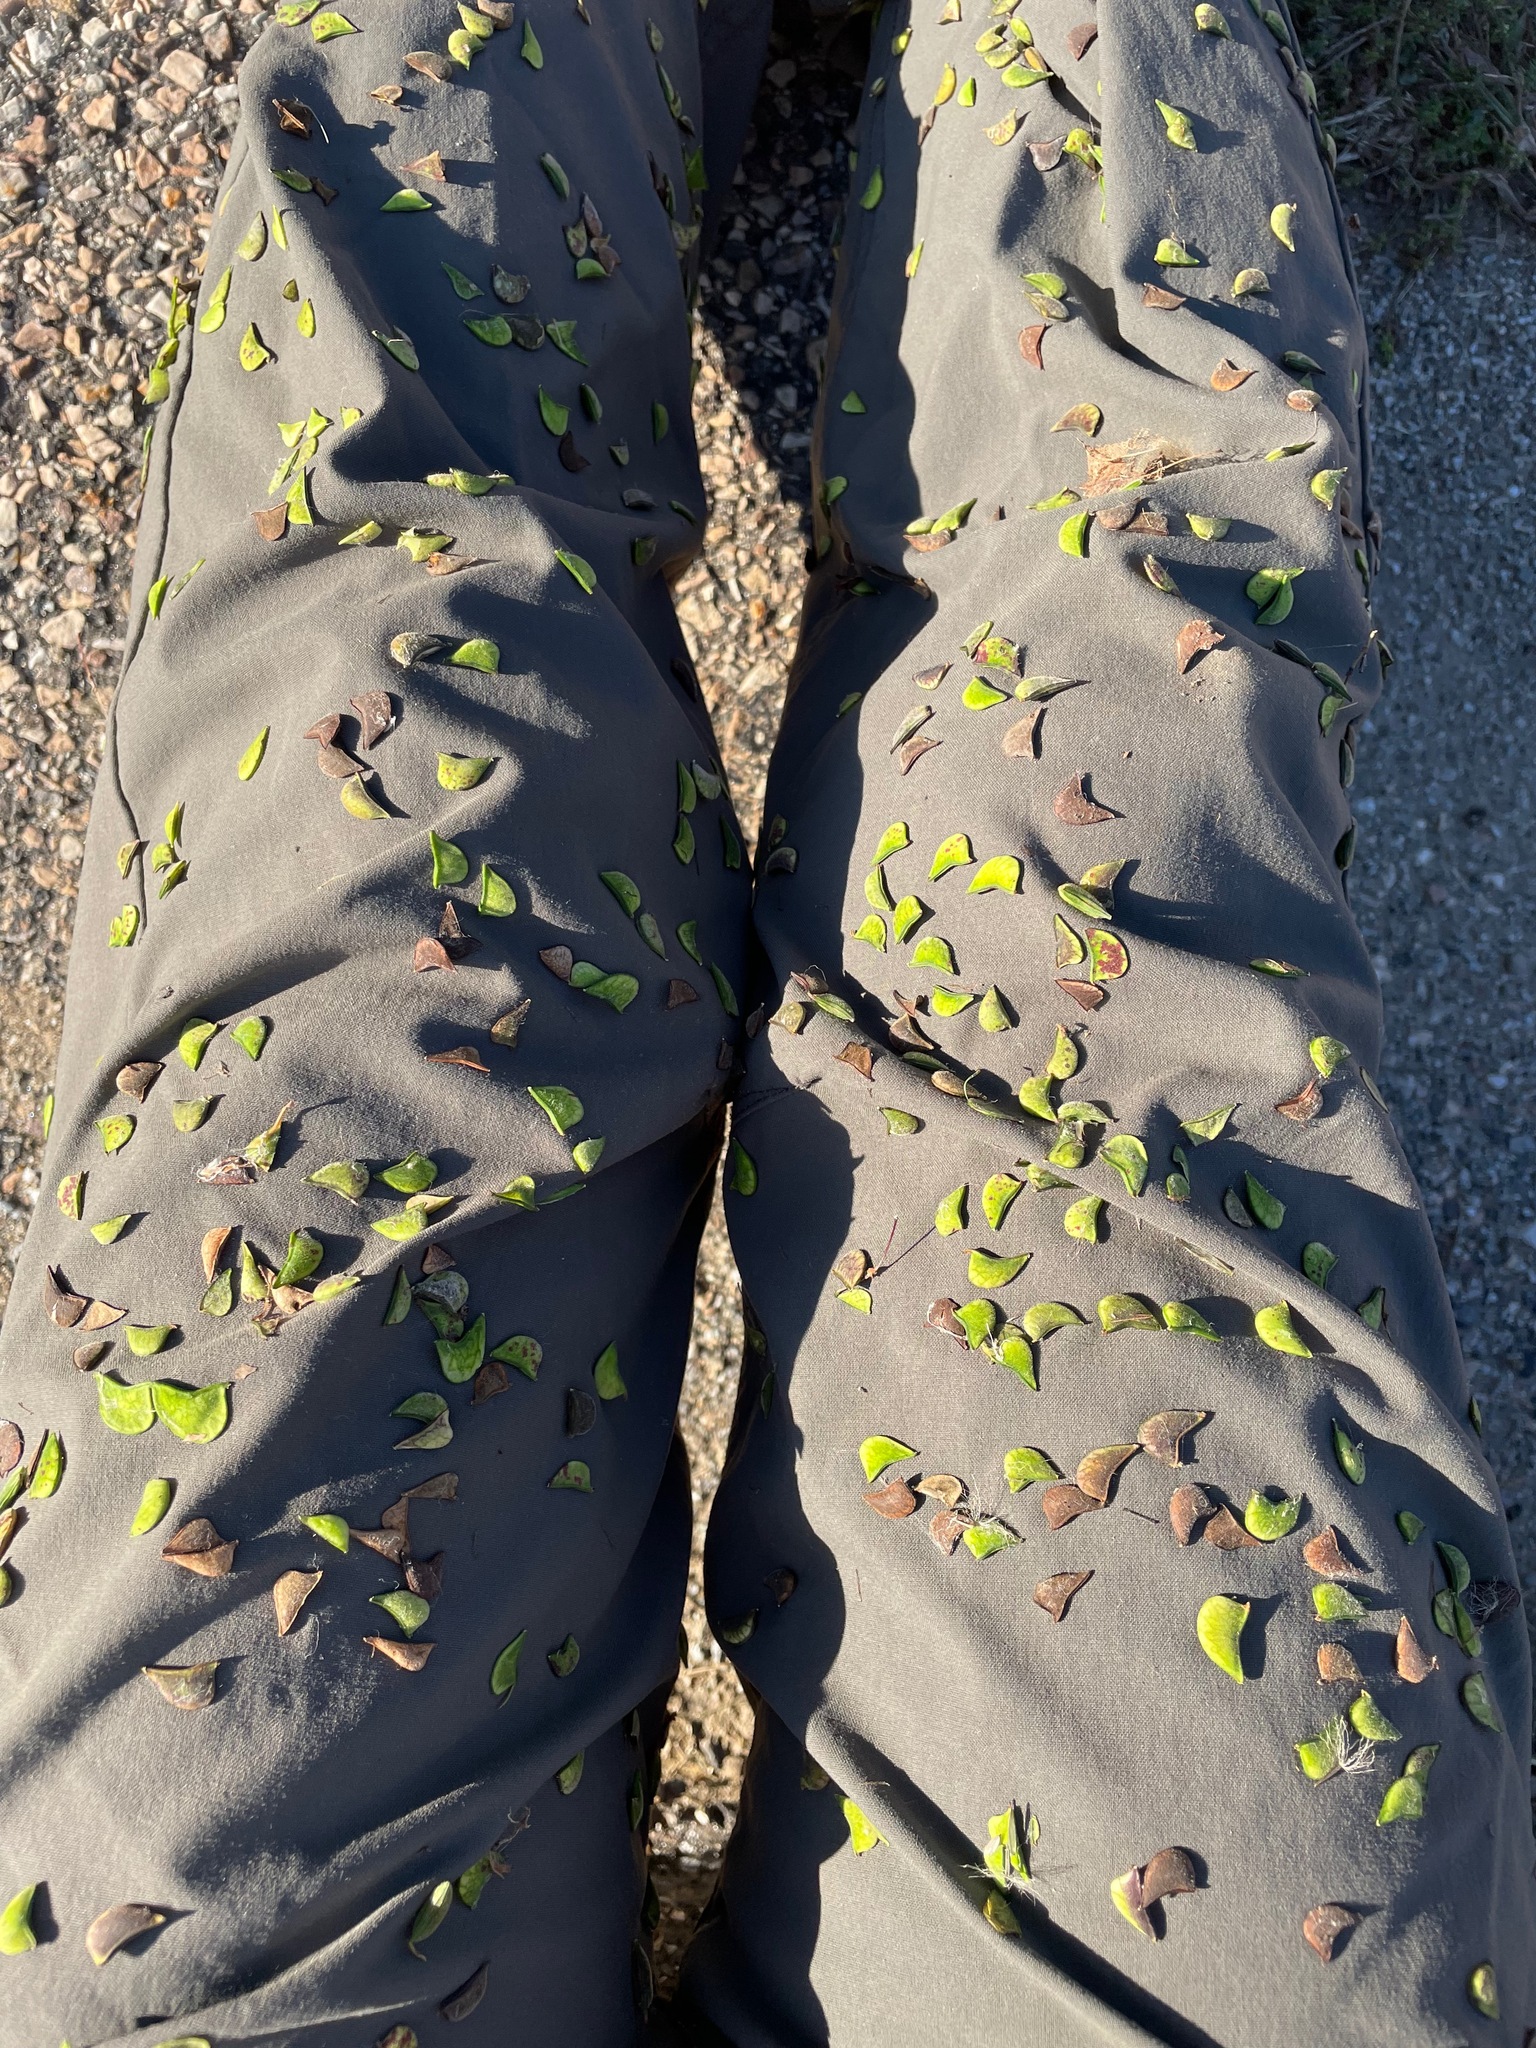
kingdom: Plantae
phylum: Tracheophyta
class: Magnoliopsida
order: Fabales
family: Fabaceae
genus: Hylodesmum
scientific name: Hylodesmum
